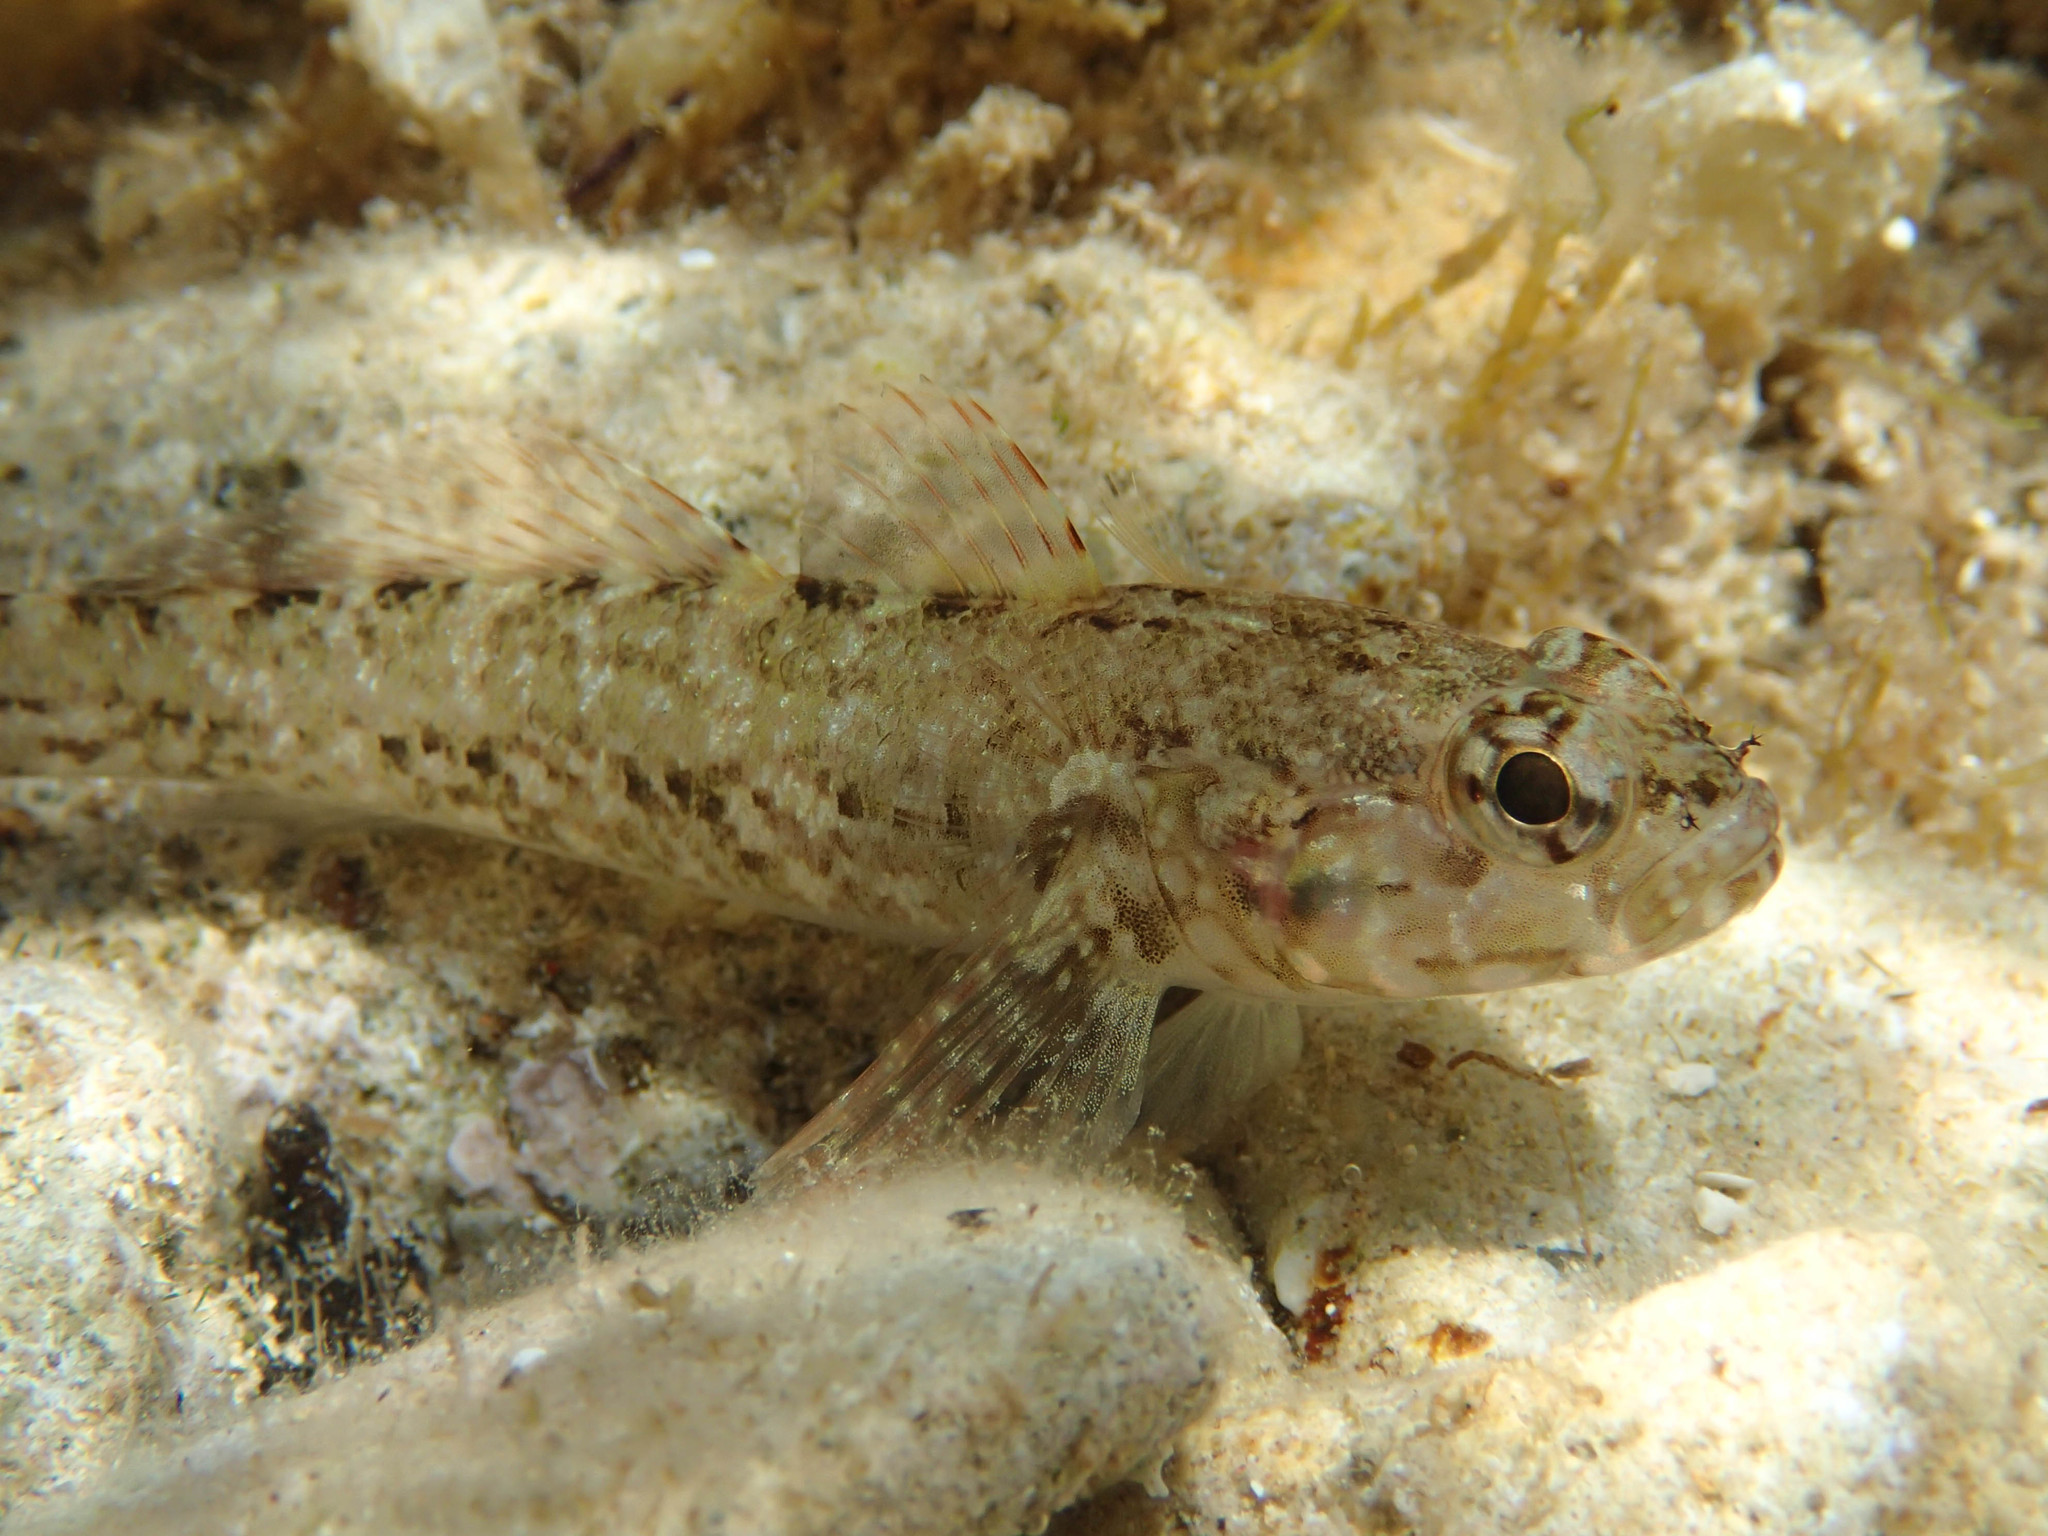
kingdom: Animalia
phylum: Chordata
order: Perciformes
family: Gobiidae
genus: Gobius
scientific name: Gobius paganellus
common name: Rock goby
